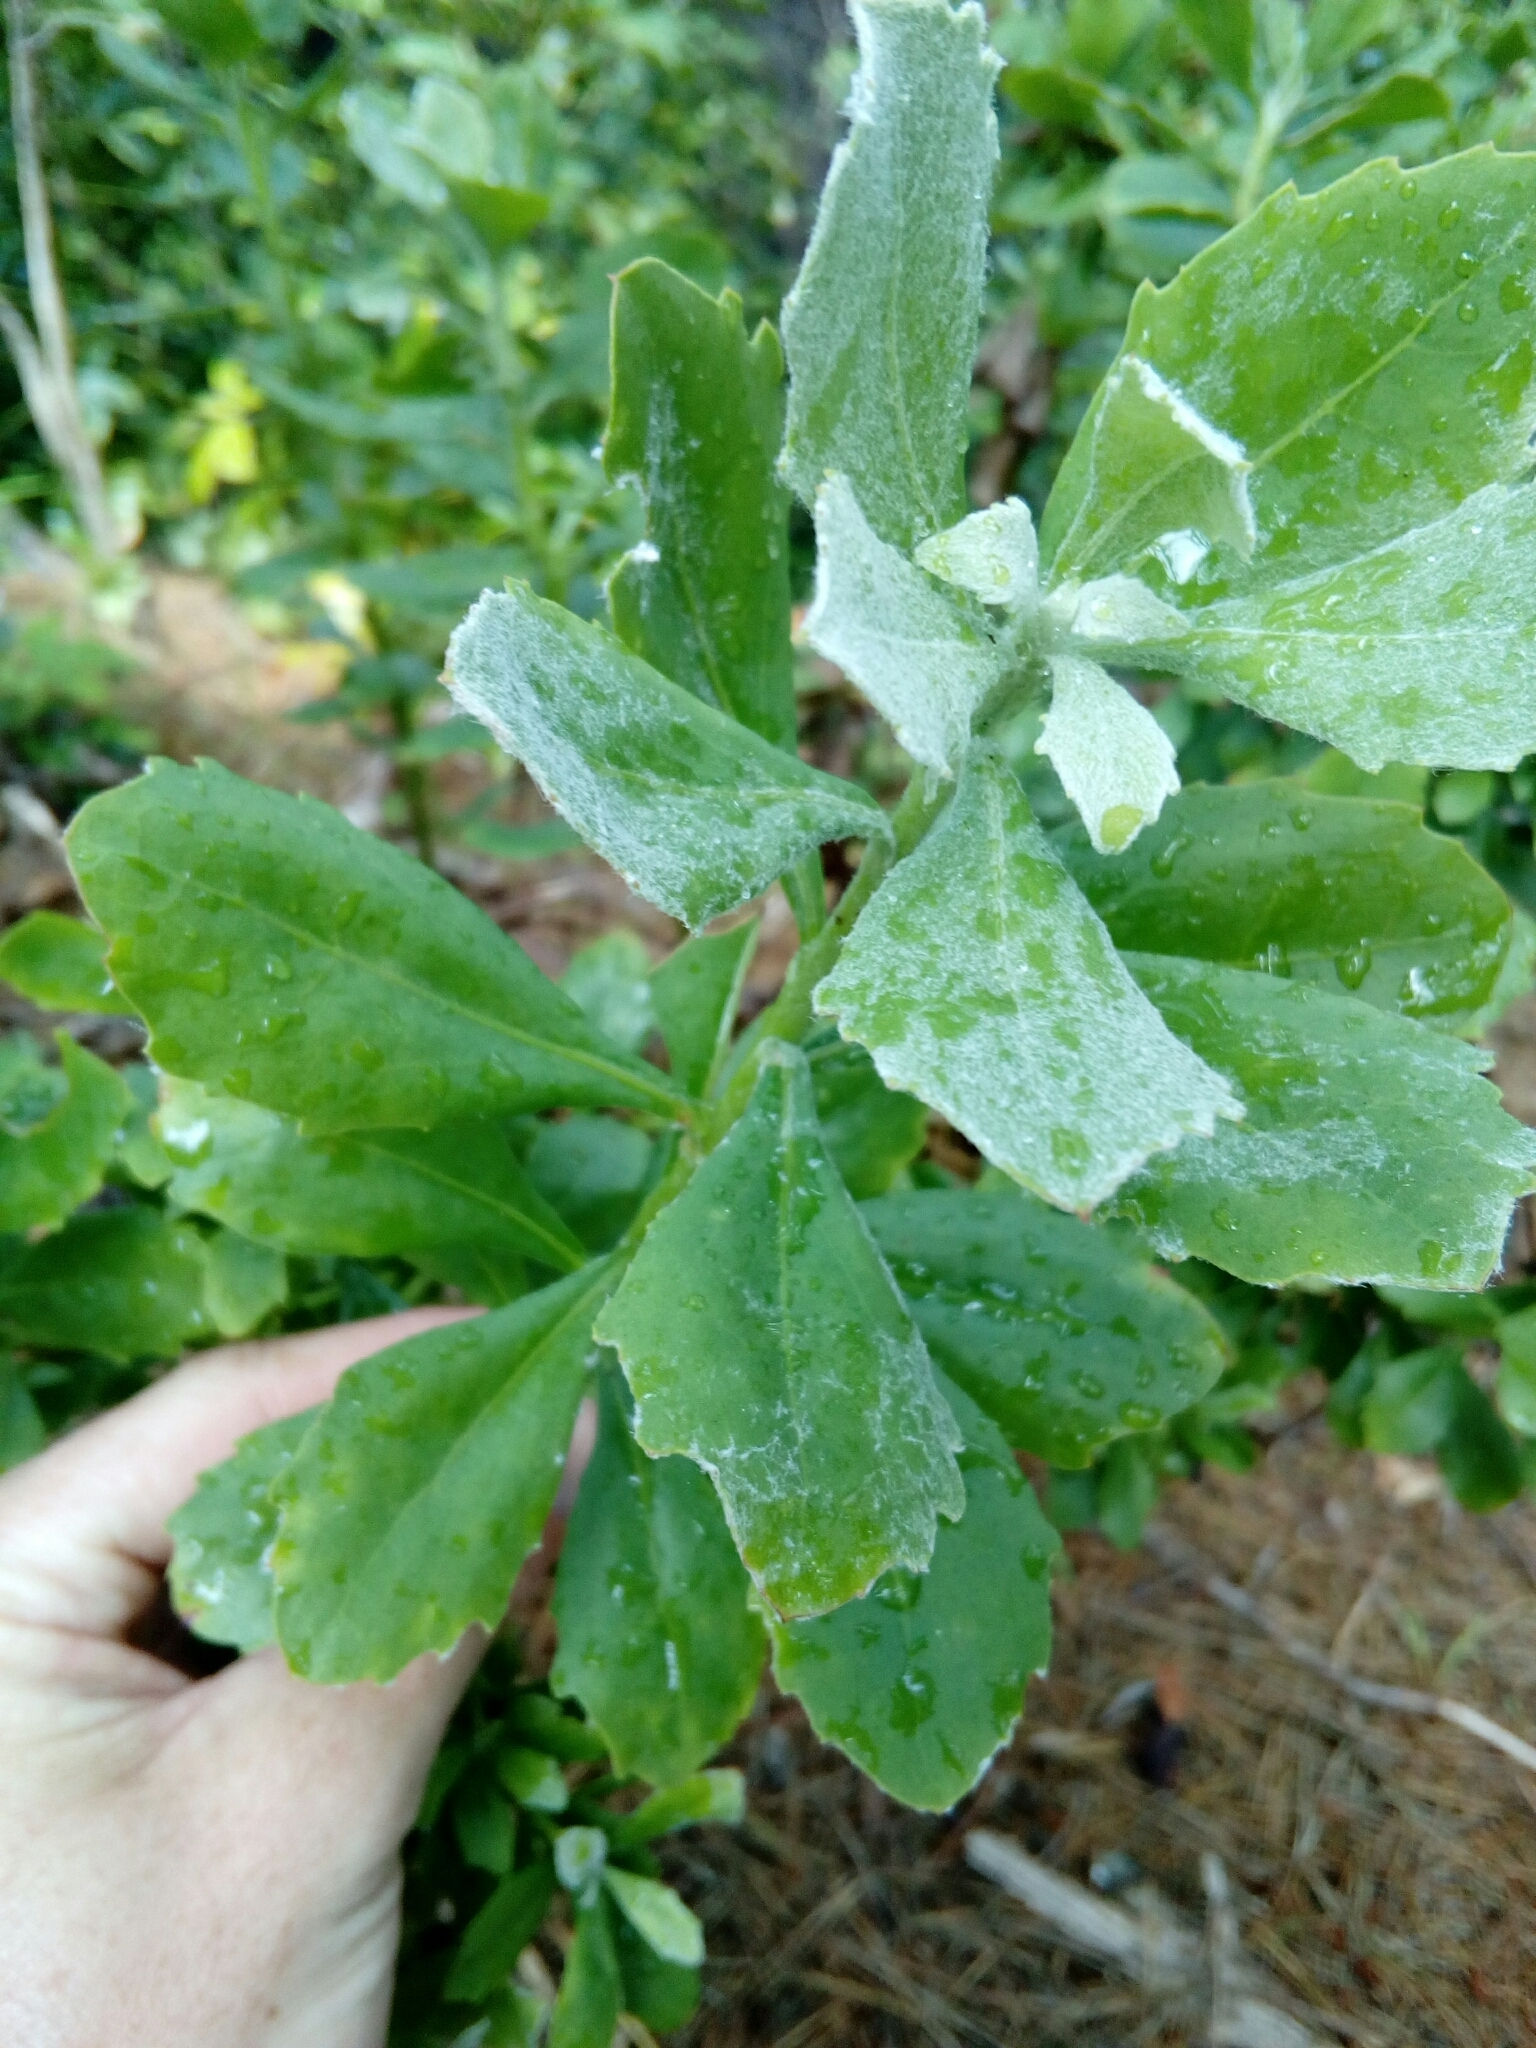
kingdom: Plantae
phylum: Tracheophyta
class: Magnoliopsida
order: Asterales
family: Asteraceae
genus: Osteospermum
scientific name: Osteospermum moniliferum
